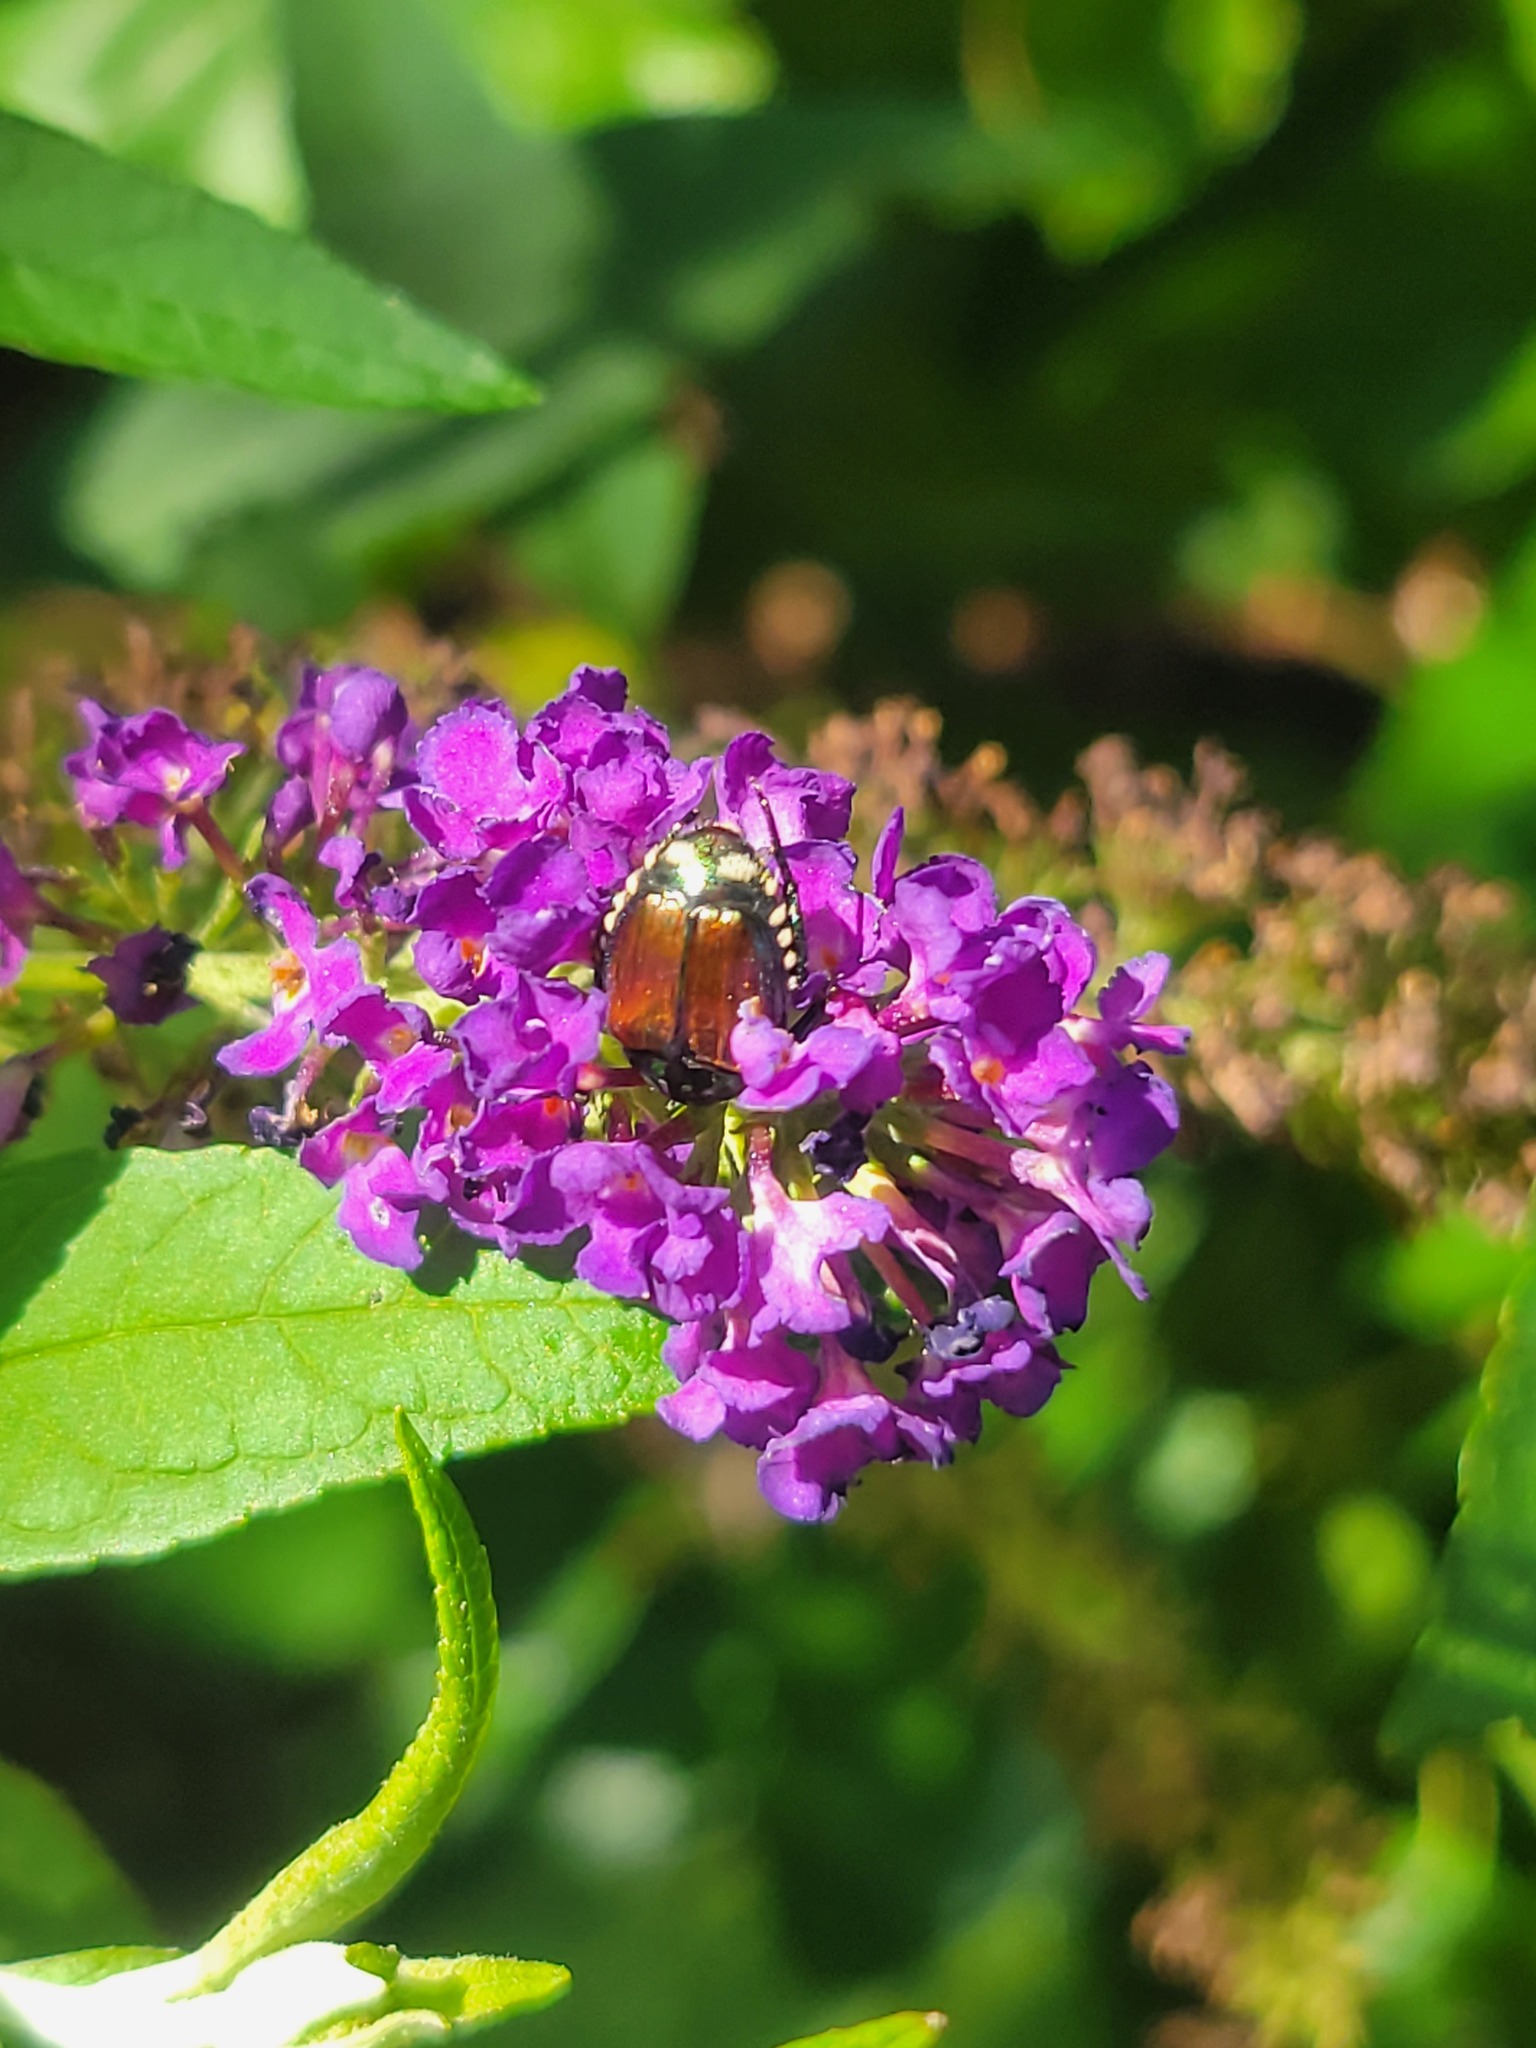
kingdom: Animalia
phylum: Arthropoda
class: Insecta
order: Coleoptera
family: Scarabaeidae
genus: Popillia
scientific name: Popillia japonica
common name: Japanese beetle
